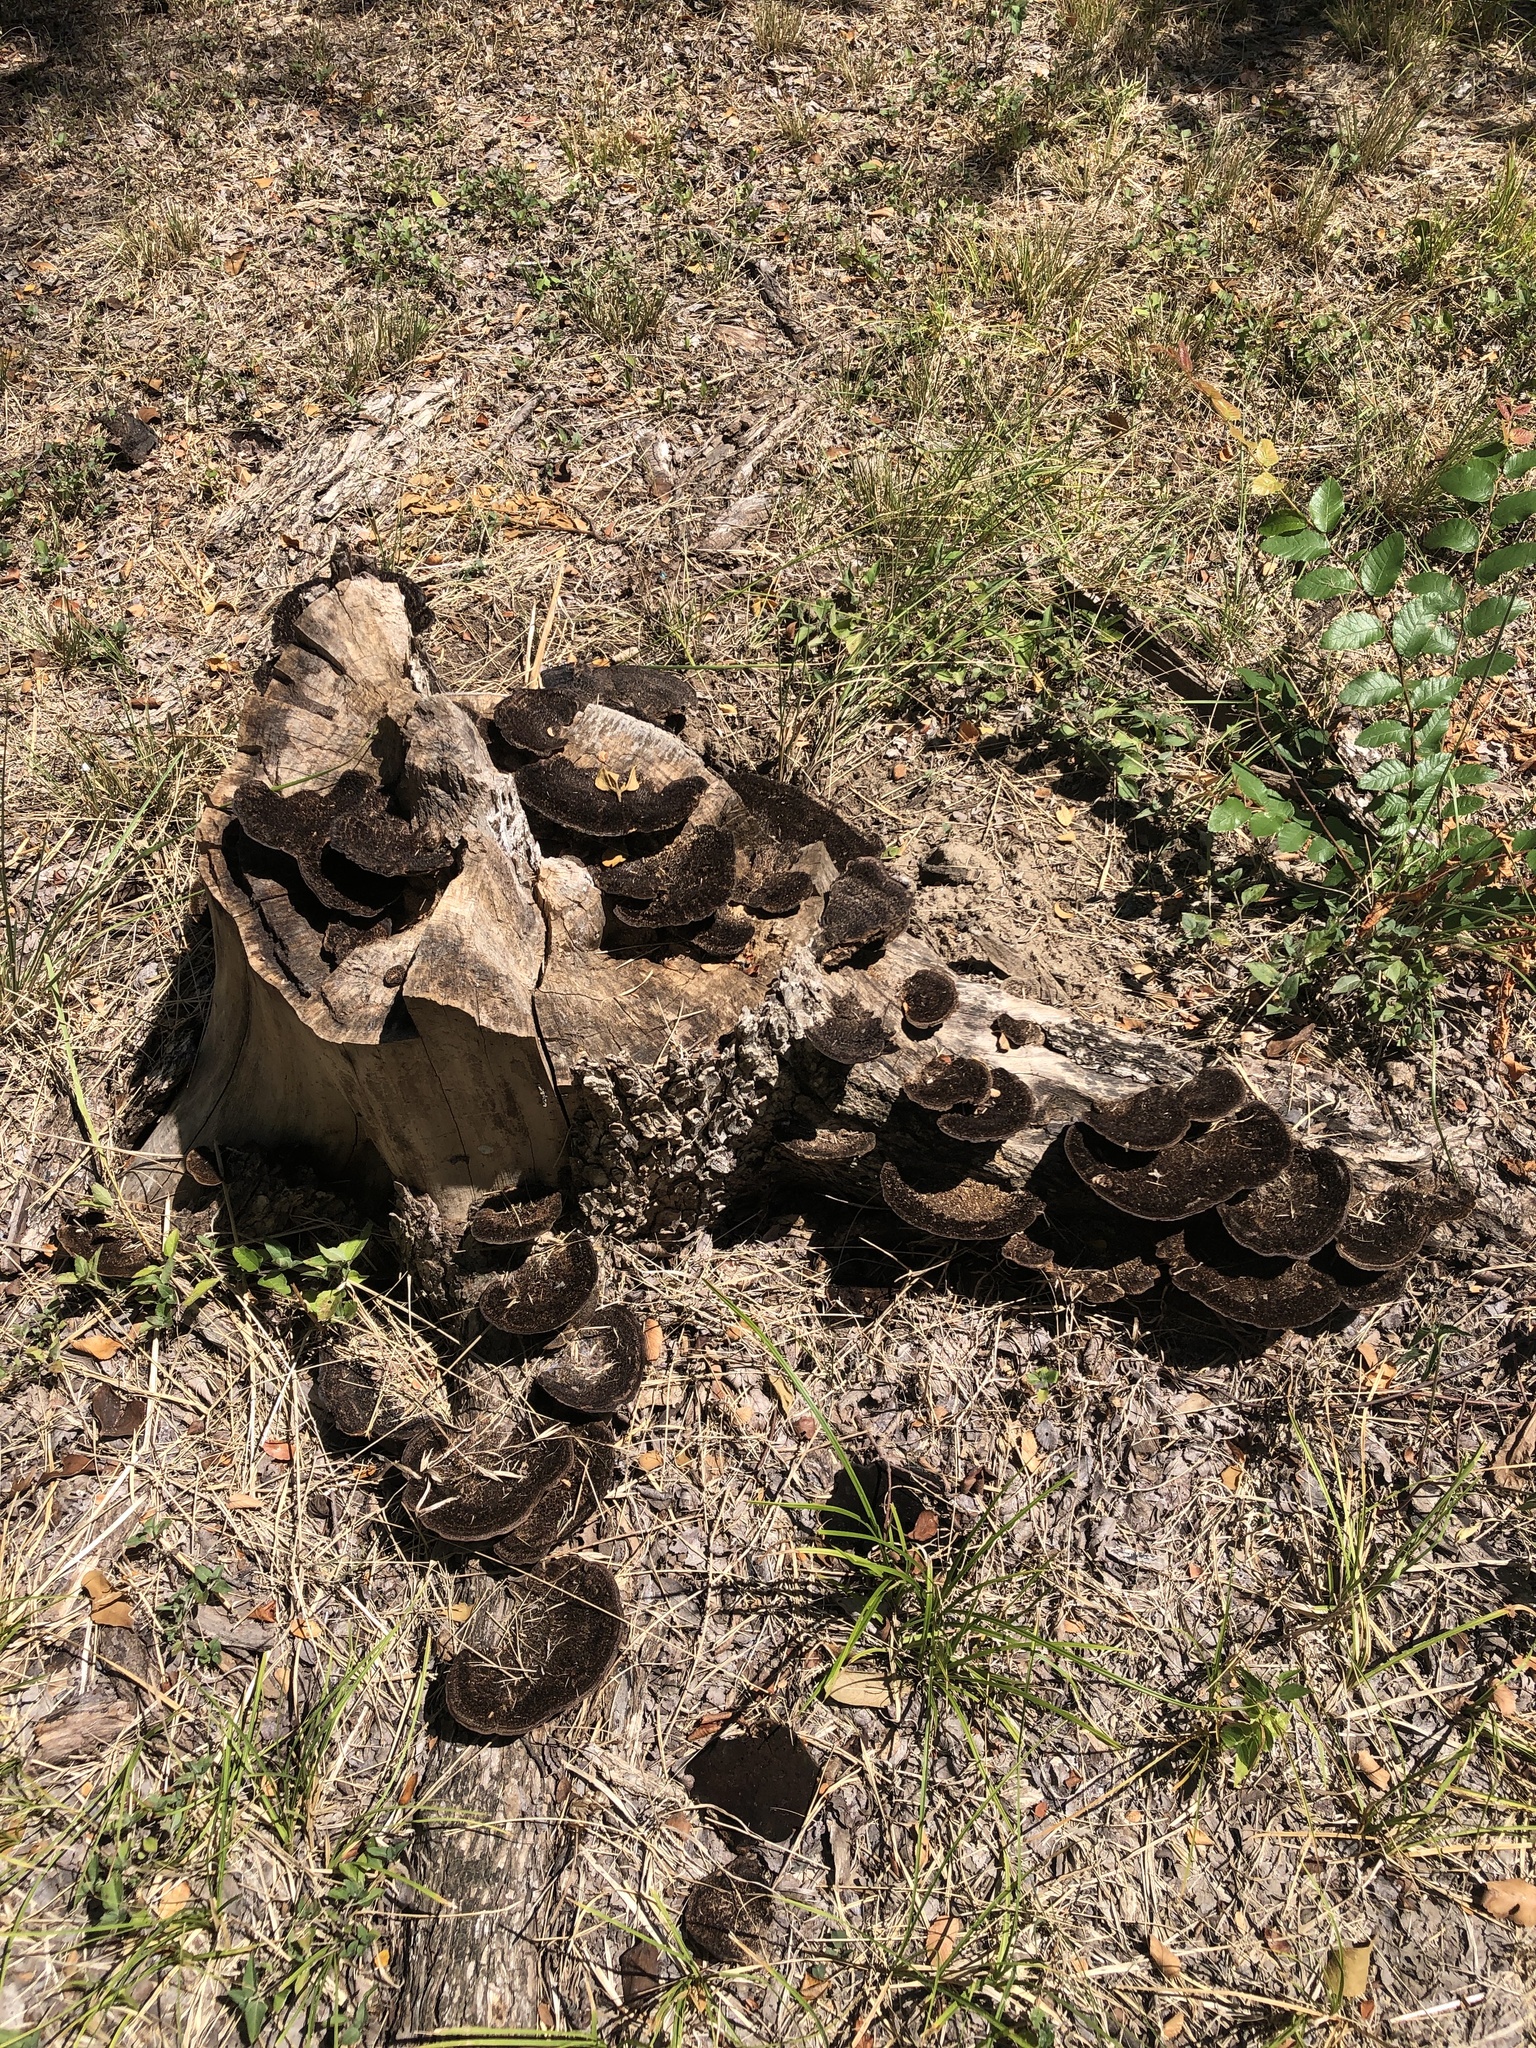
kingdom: Fungi
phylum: Basidiomycota
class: Agaricomycetes
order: Polyporales
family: Cerrenaceae
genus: Cerrena
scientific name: Cerrena hydnoides
